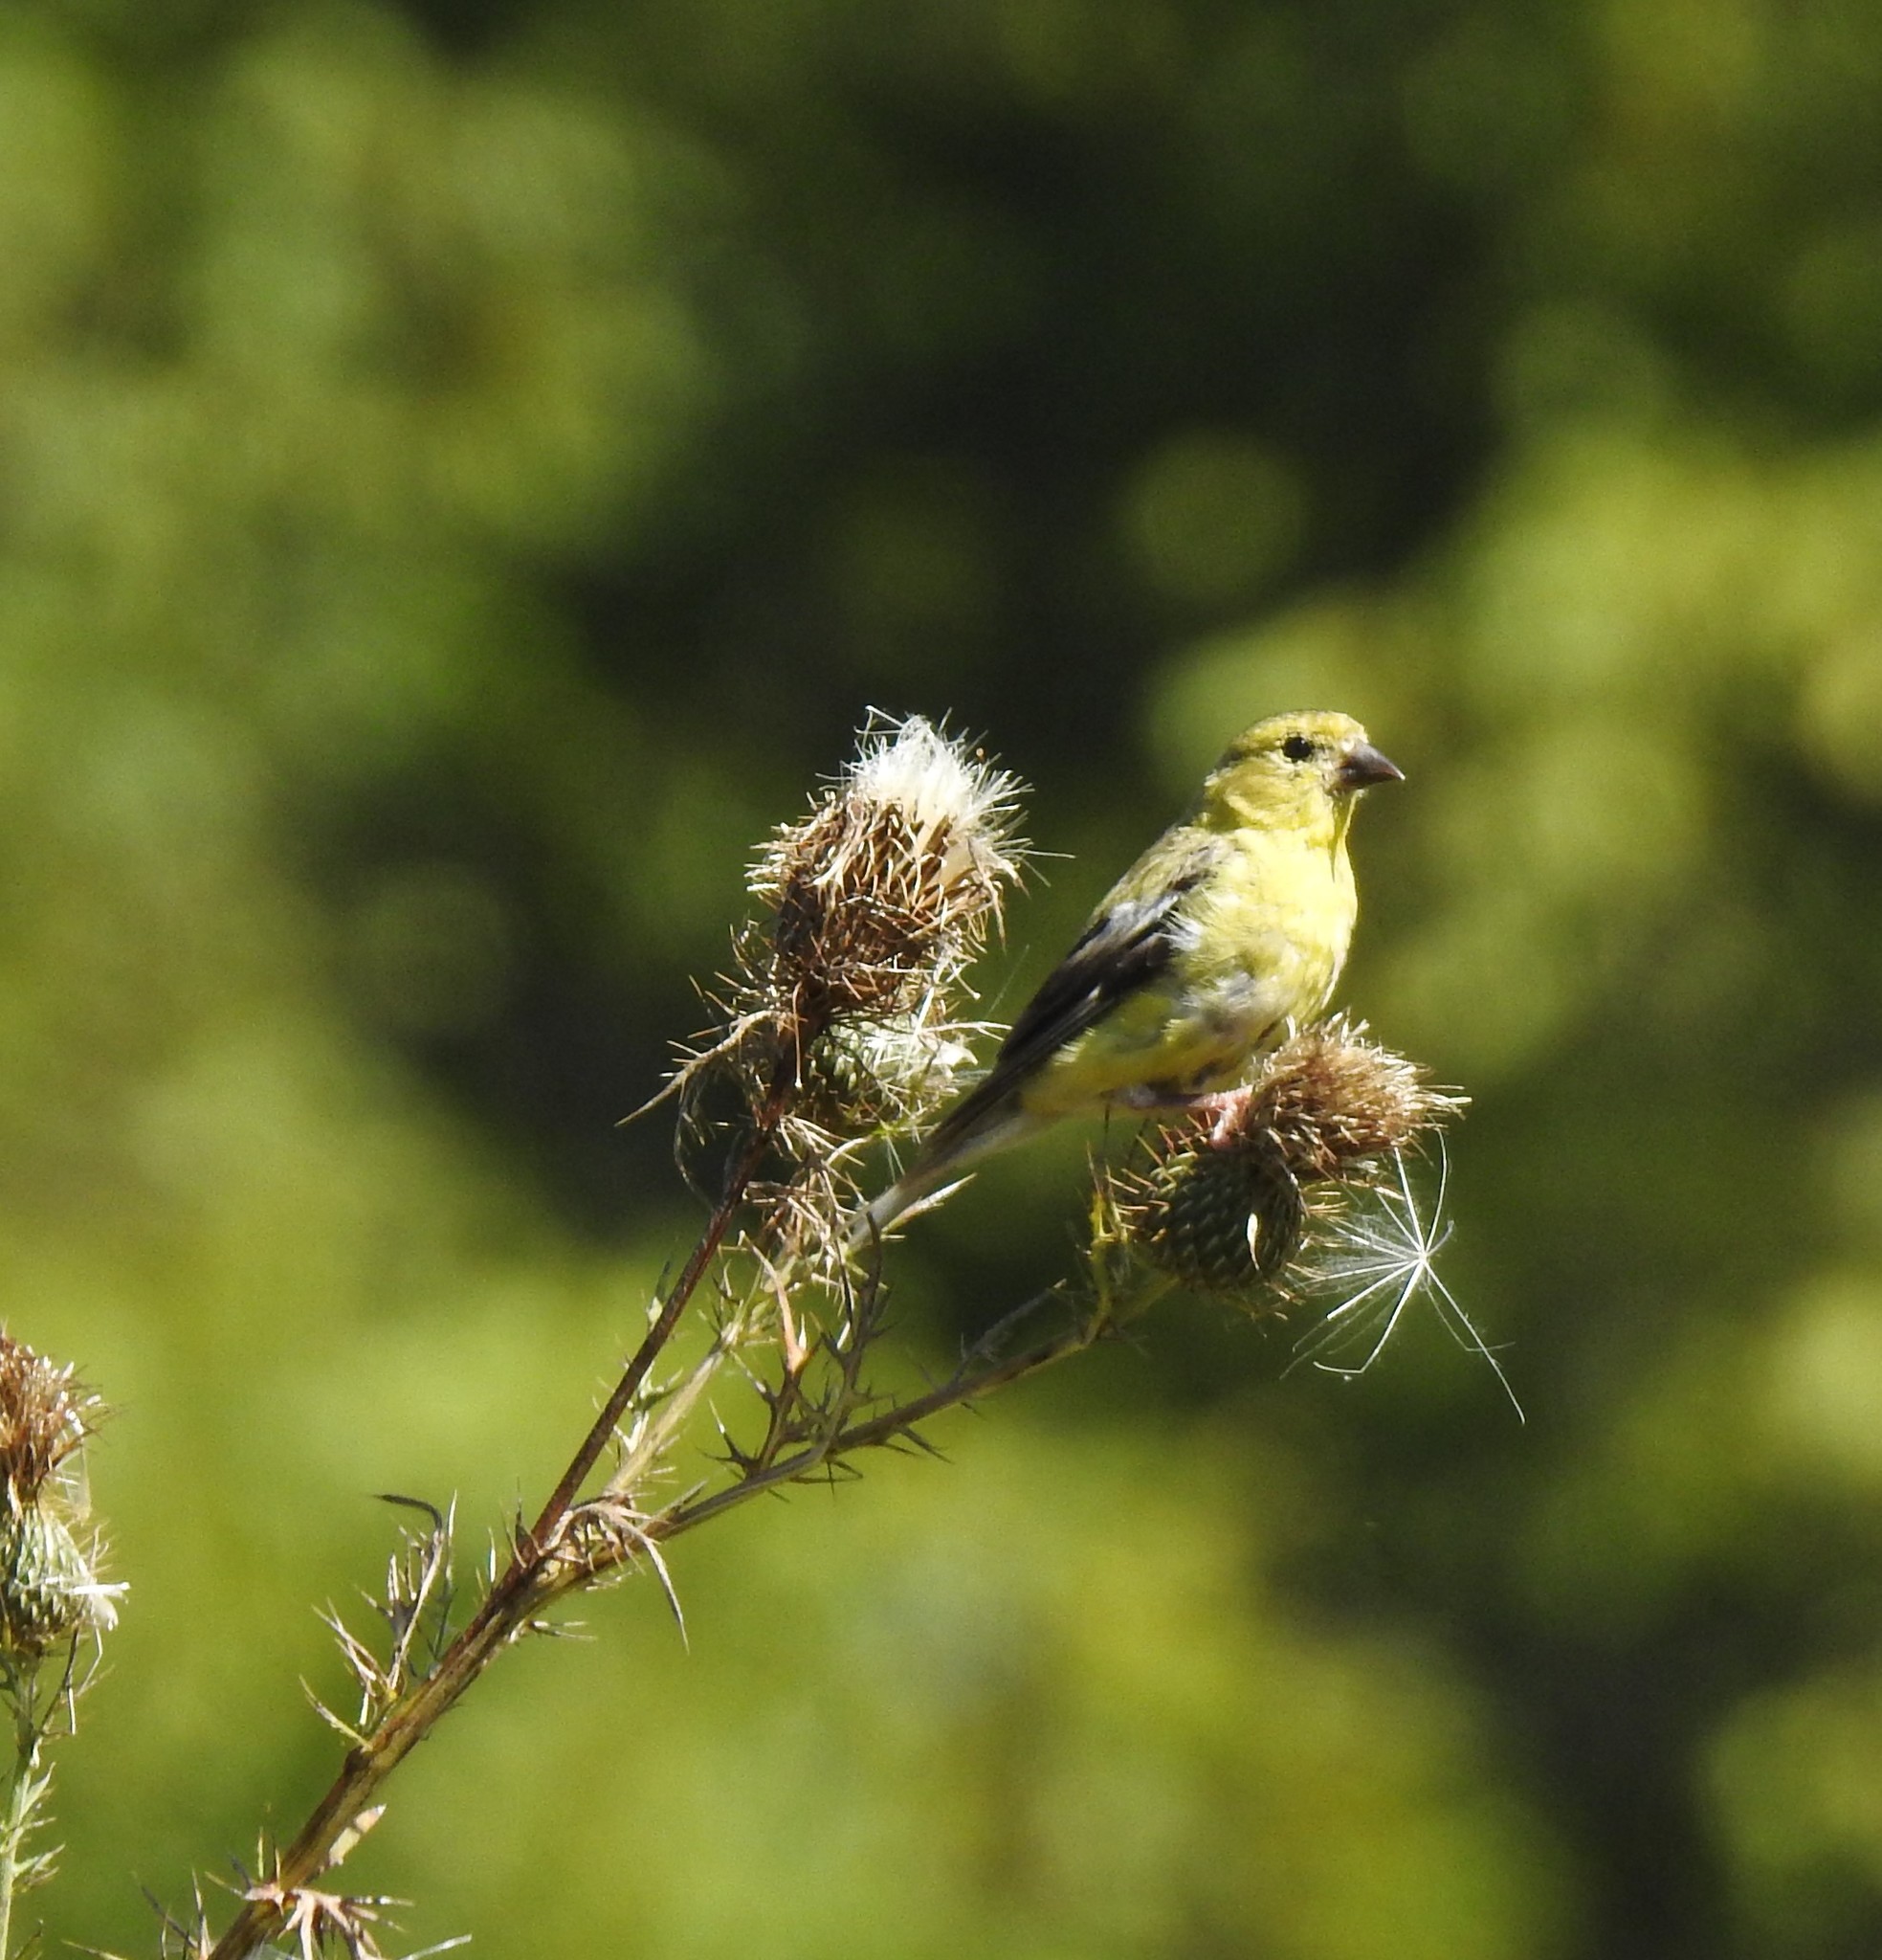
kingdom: Animalia
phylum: Chordata
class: Aves
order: Passeriformes
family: Fringillidae
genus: Spinus
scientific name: Spinus tristis
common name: American goldfinch
